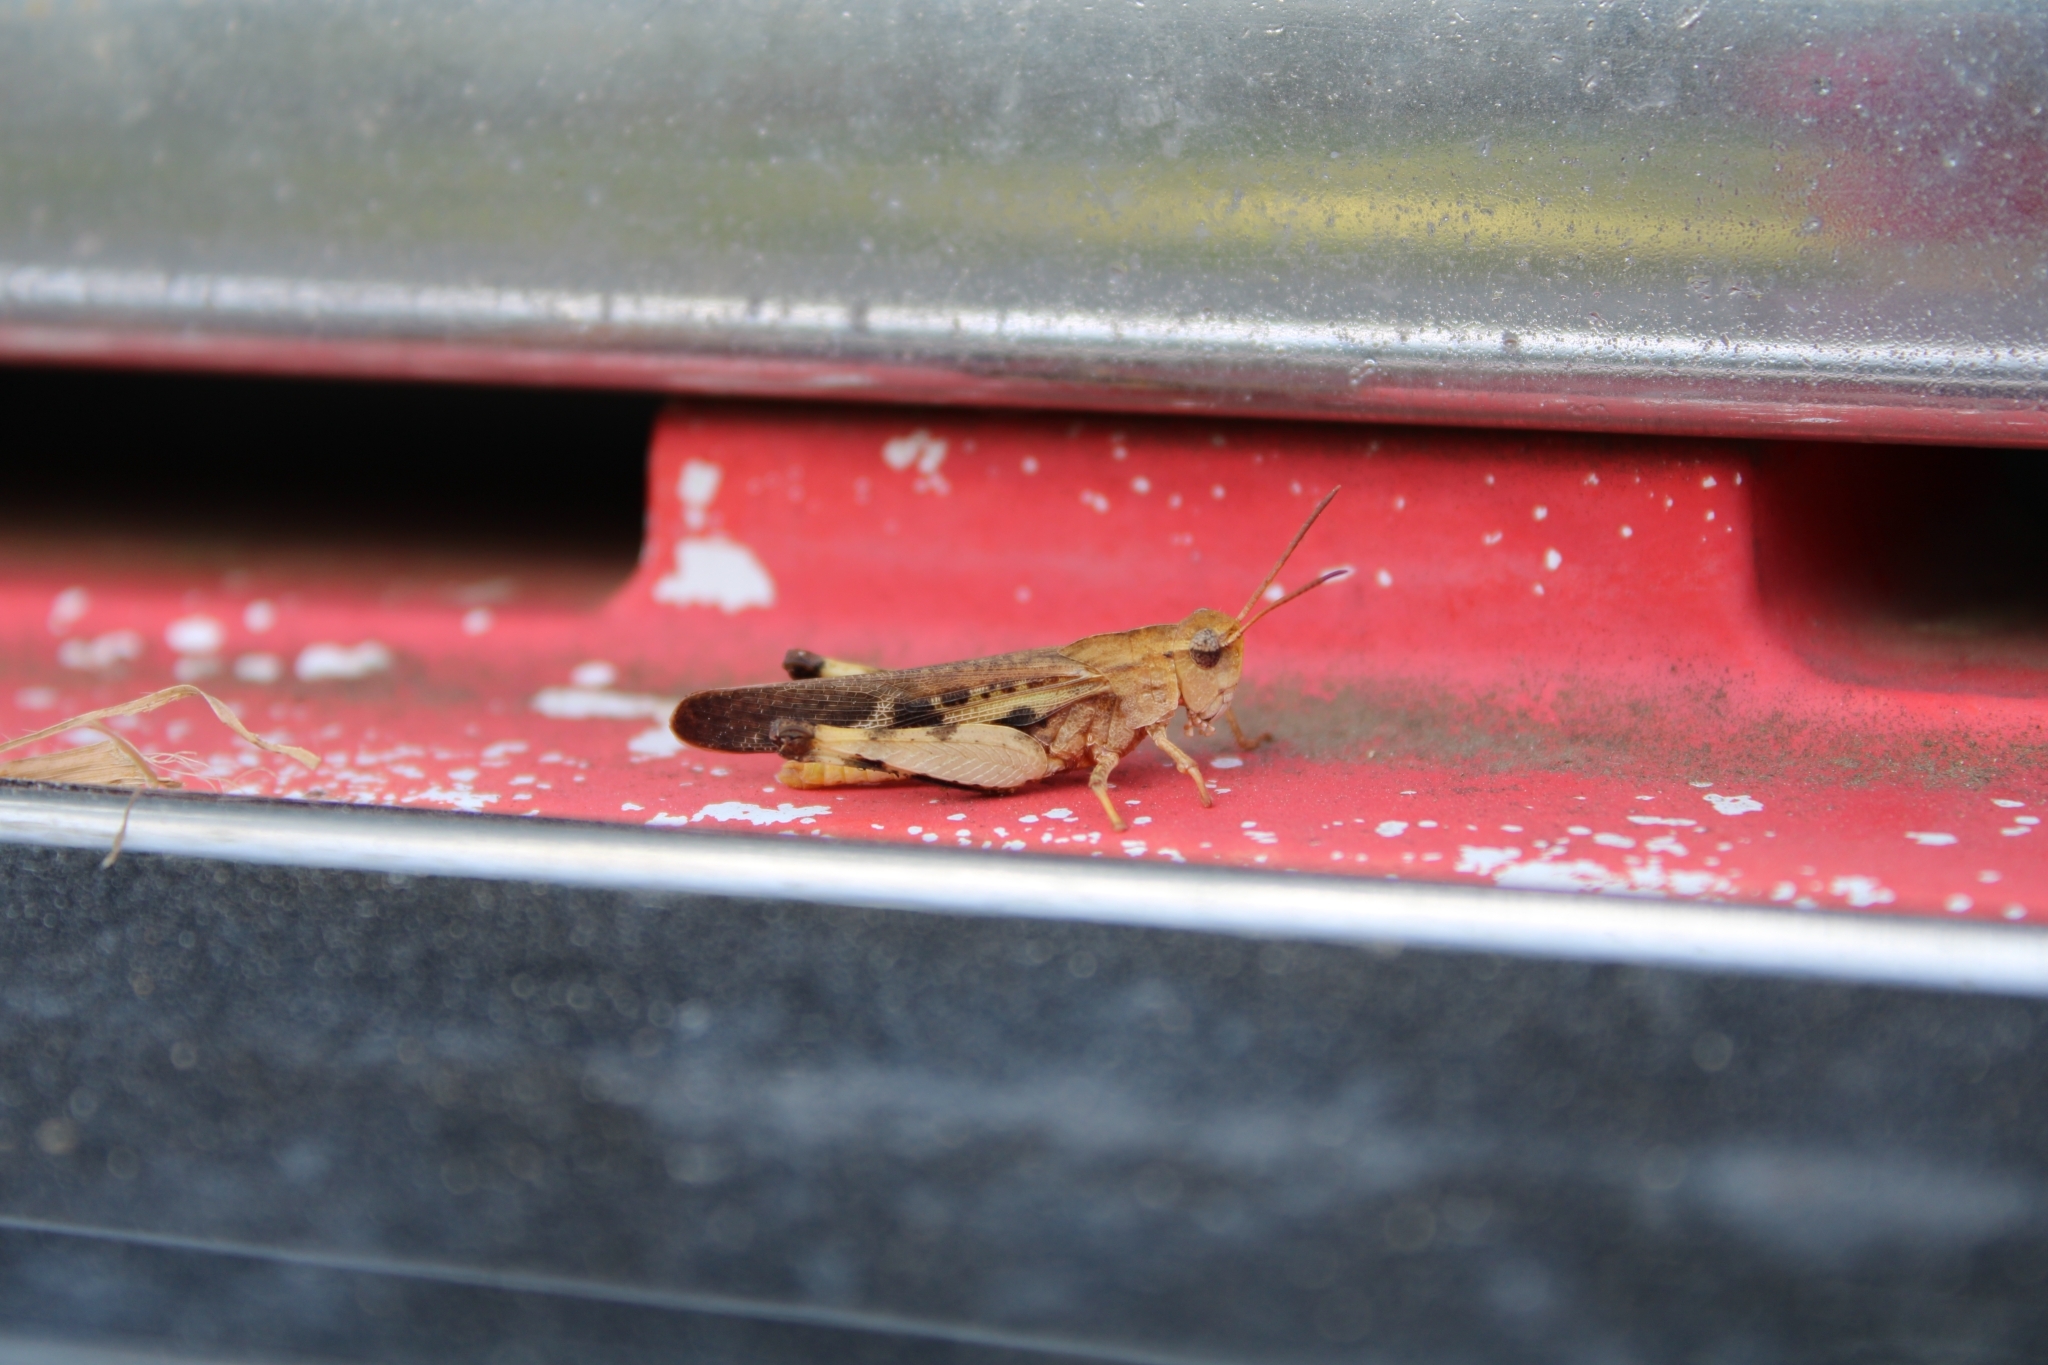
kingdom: Animalia
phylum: Arthropoda
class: Insecta
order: Orthoptera
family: Acrididae
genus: Chortophaga
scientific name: Chortophaga viridifasciata
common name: Green-striped grasshopper
